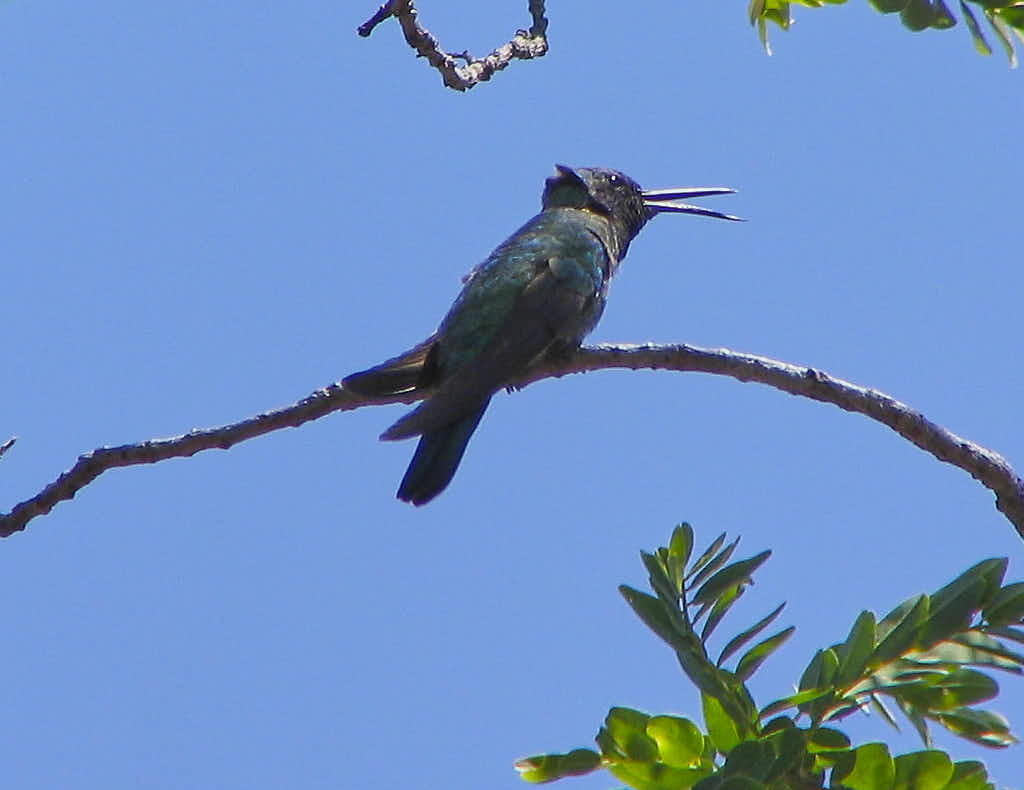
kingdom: Animalia
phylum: Chordata
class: Aves
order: Apodiformes
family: Trochilidae
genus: Augastes
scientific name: Augastes scutatus
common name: Hyacinth visorbearer
